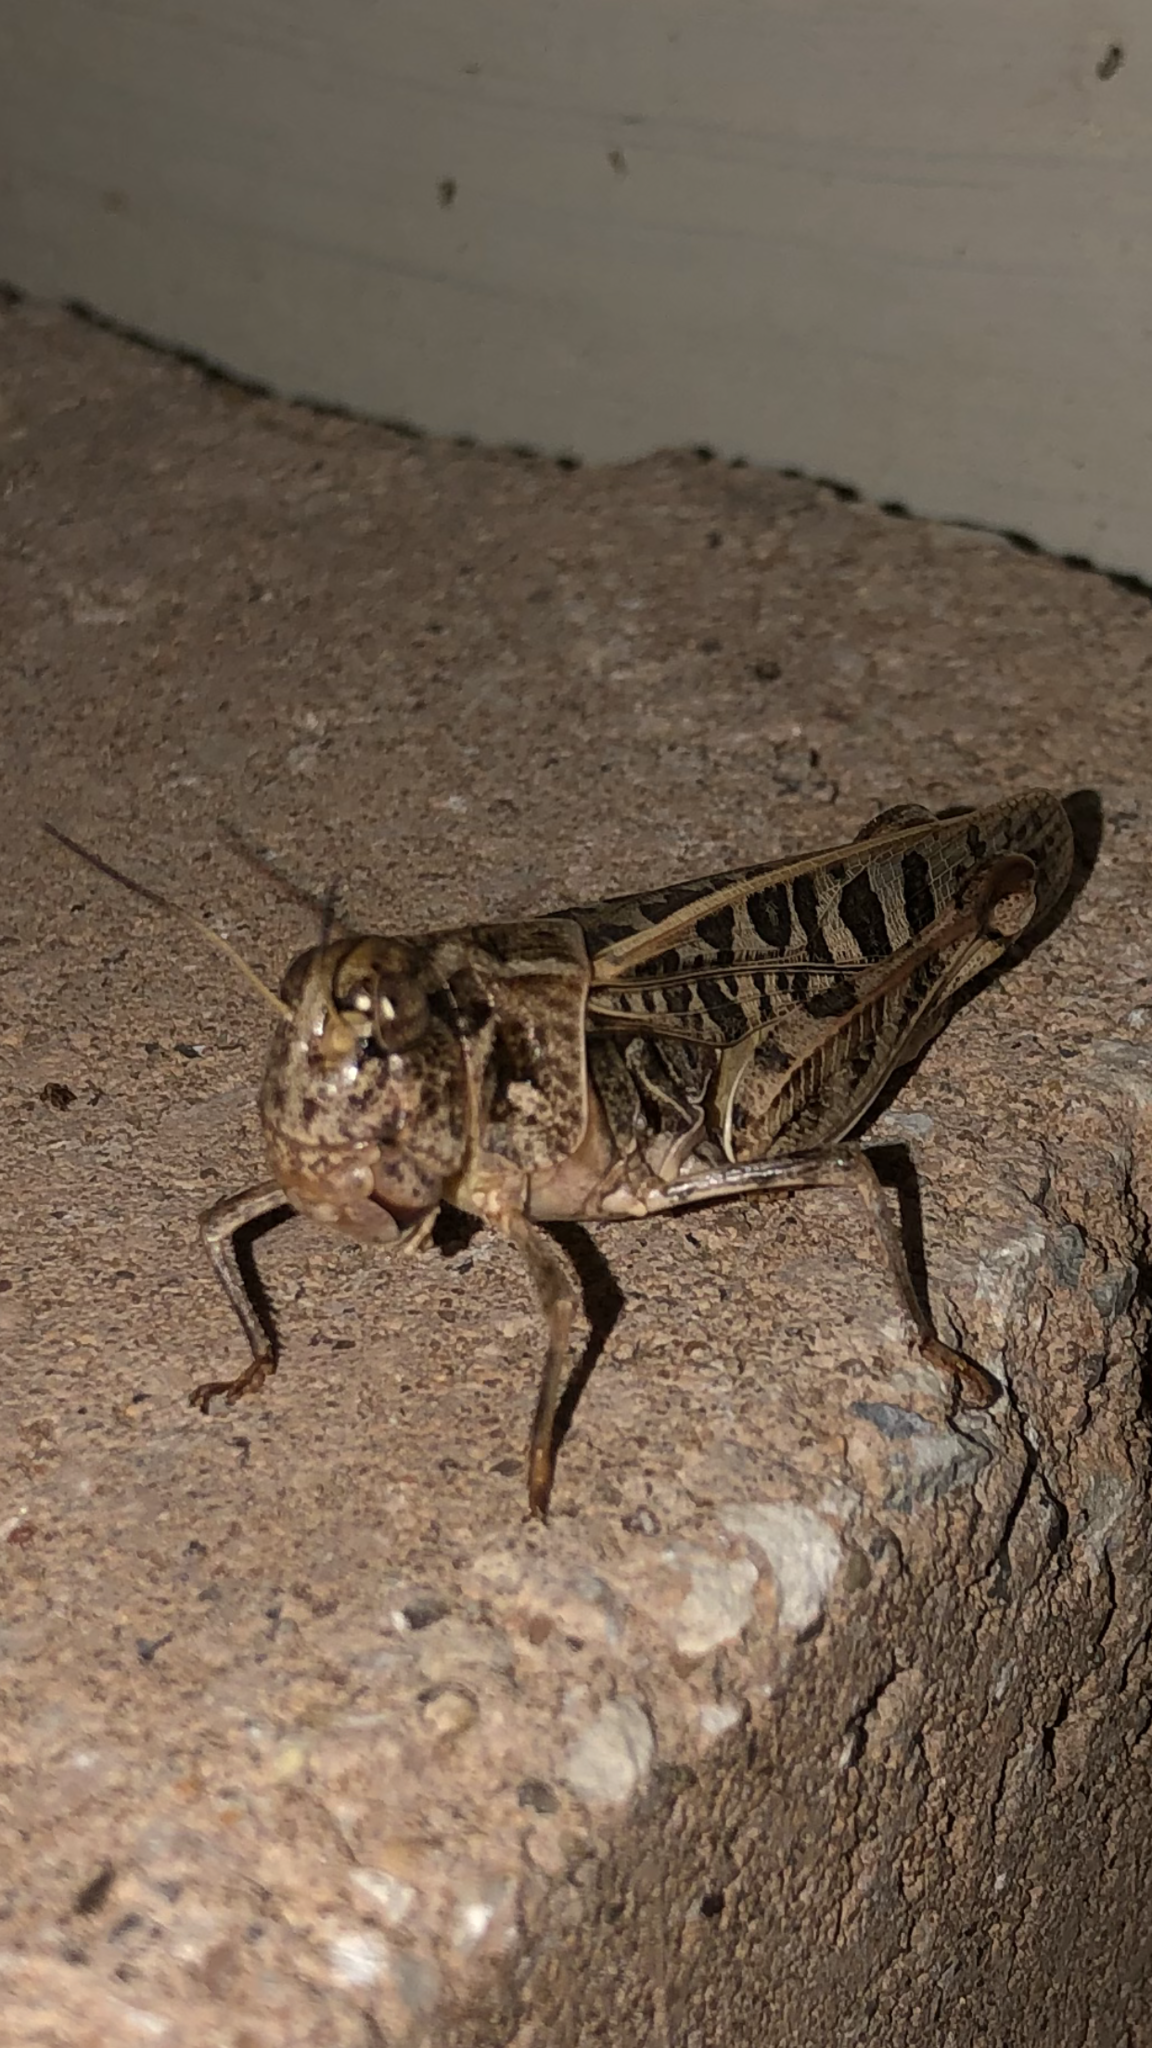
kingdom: Animalia
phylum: Arthropoda
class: Insecta
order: Orthoptera
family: Acrididae
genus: Hippiscus
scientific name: Hippiscus ocelote
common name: Wrinkled grasshopper
